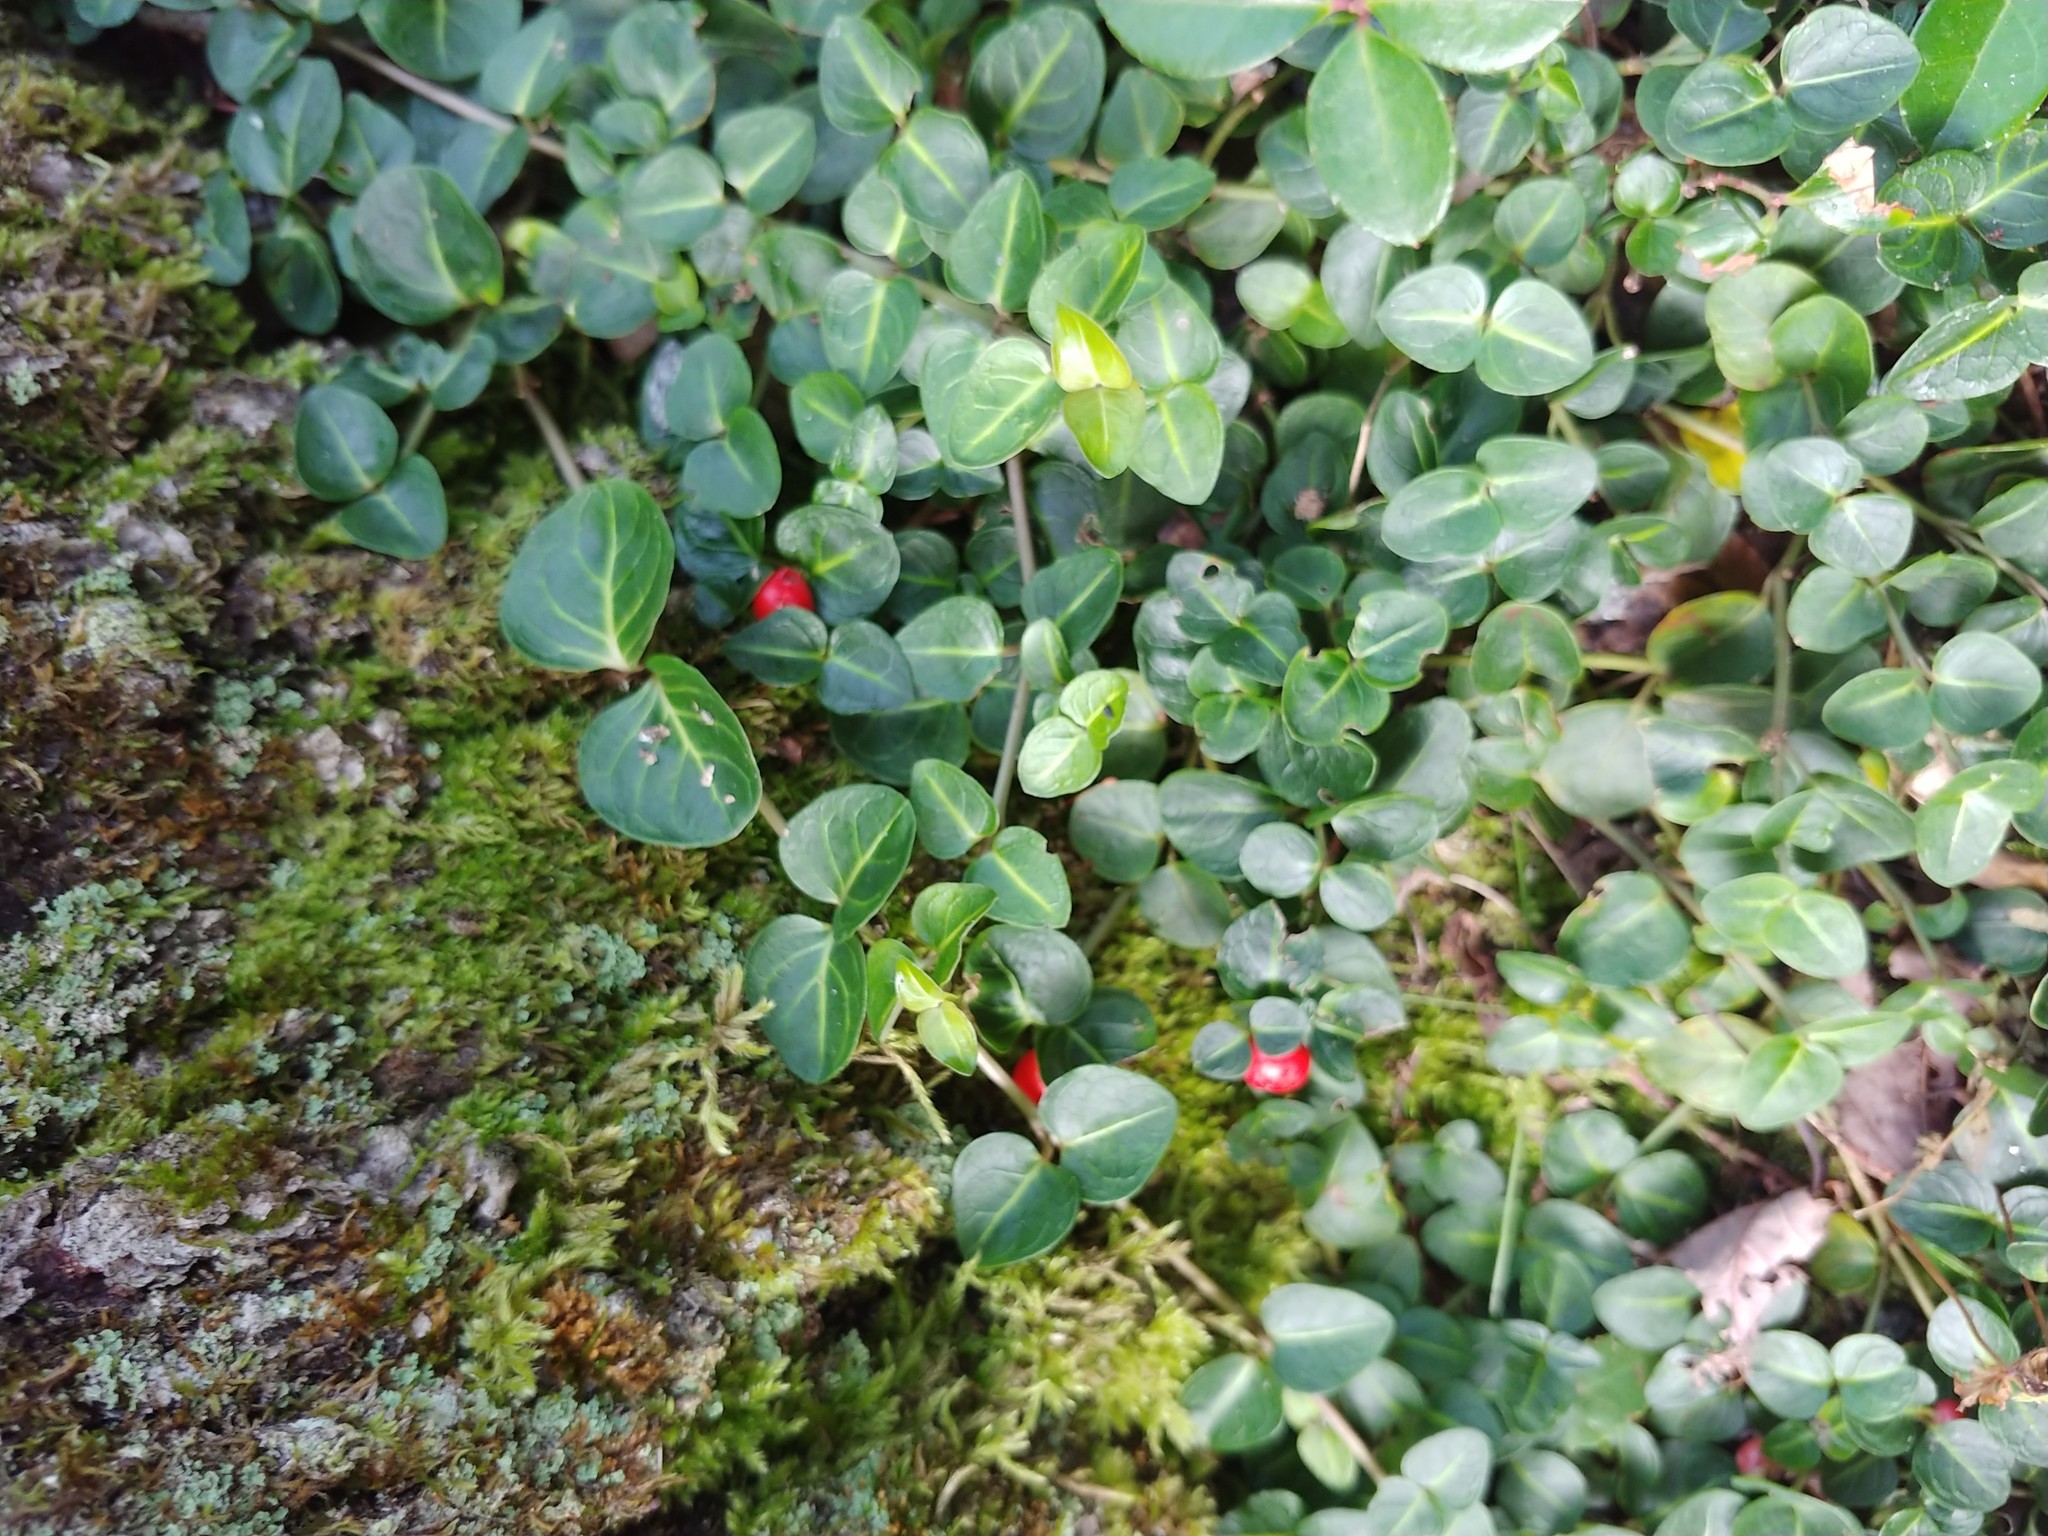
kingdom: Plantae
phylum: Tracheophyta
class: Magnoliopsida
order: Gentianales
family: Rubiaceae
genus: Mitchella
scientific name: Mitchella repens
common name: Partridge-berry
